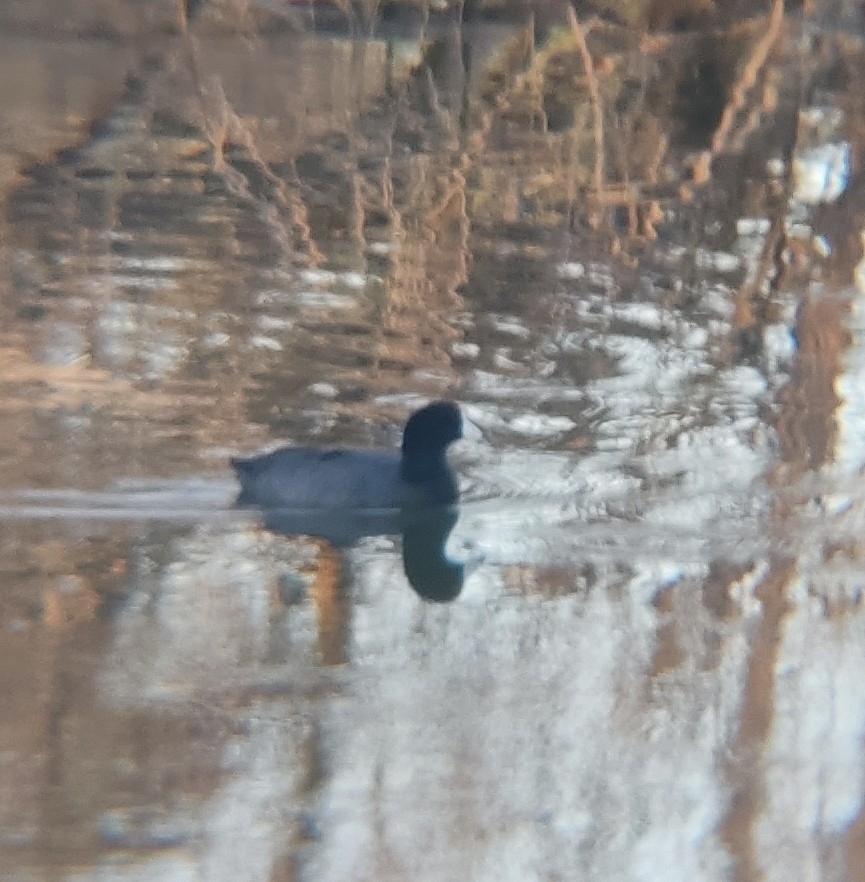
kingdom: Animalia
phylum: Chordata
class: Aves
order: Gruiformes
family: Rallidae
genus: Fulica
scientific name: Fulica americana
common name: American coot
